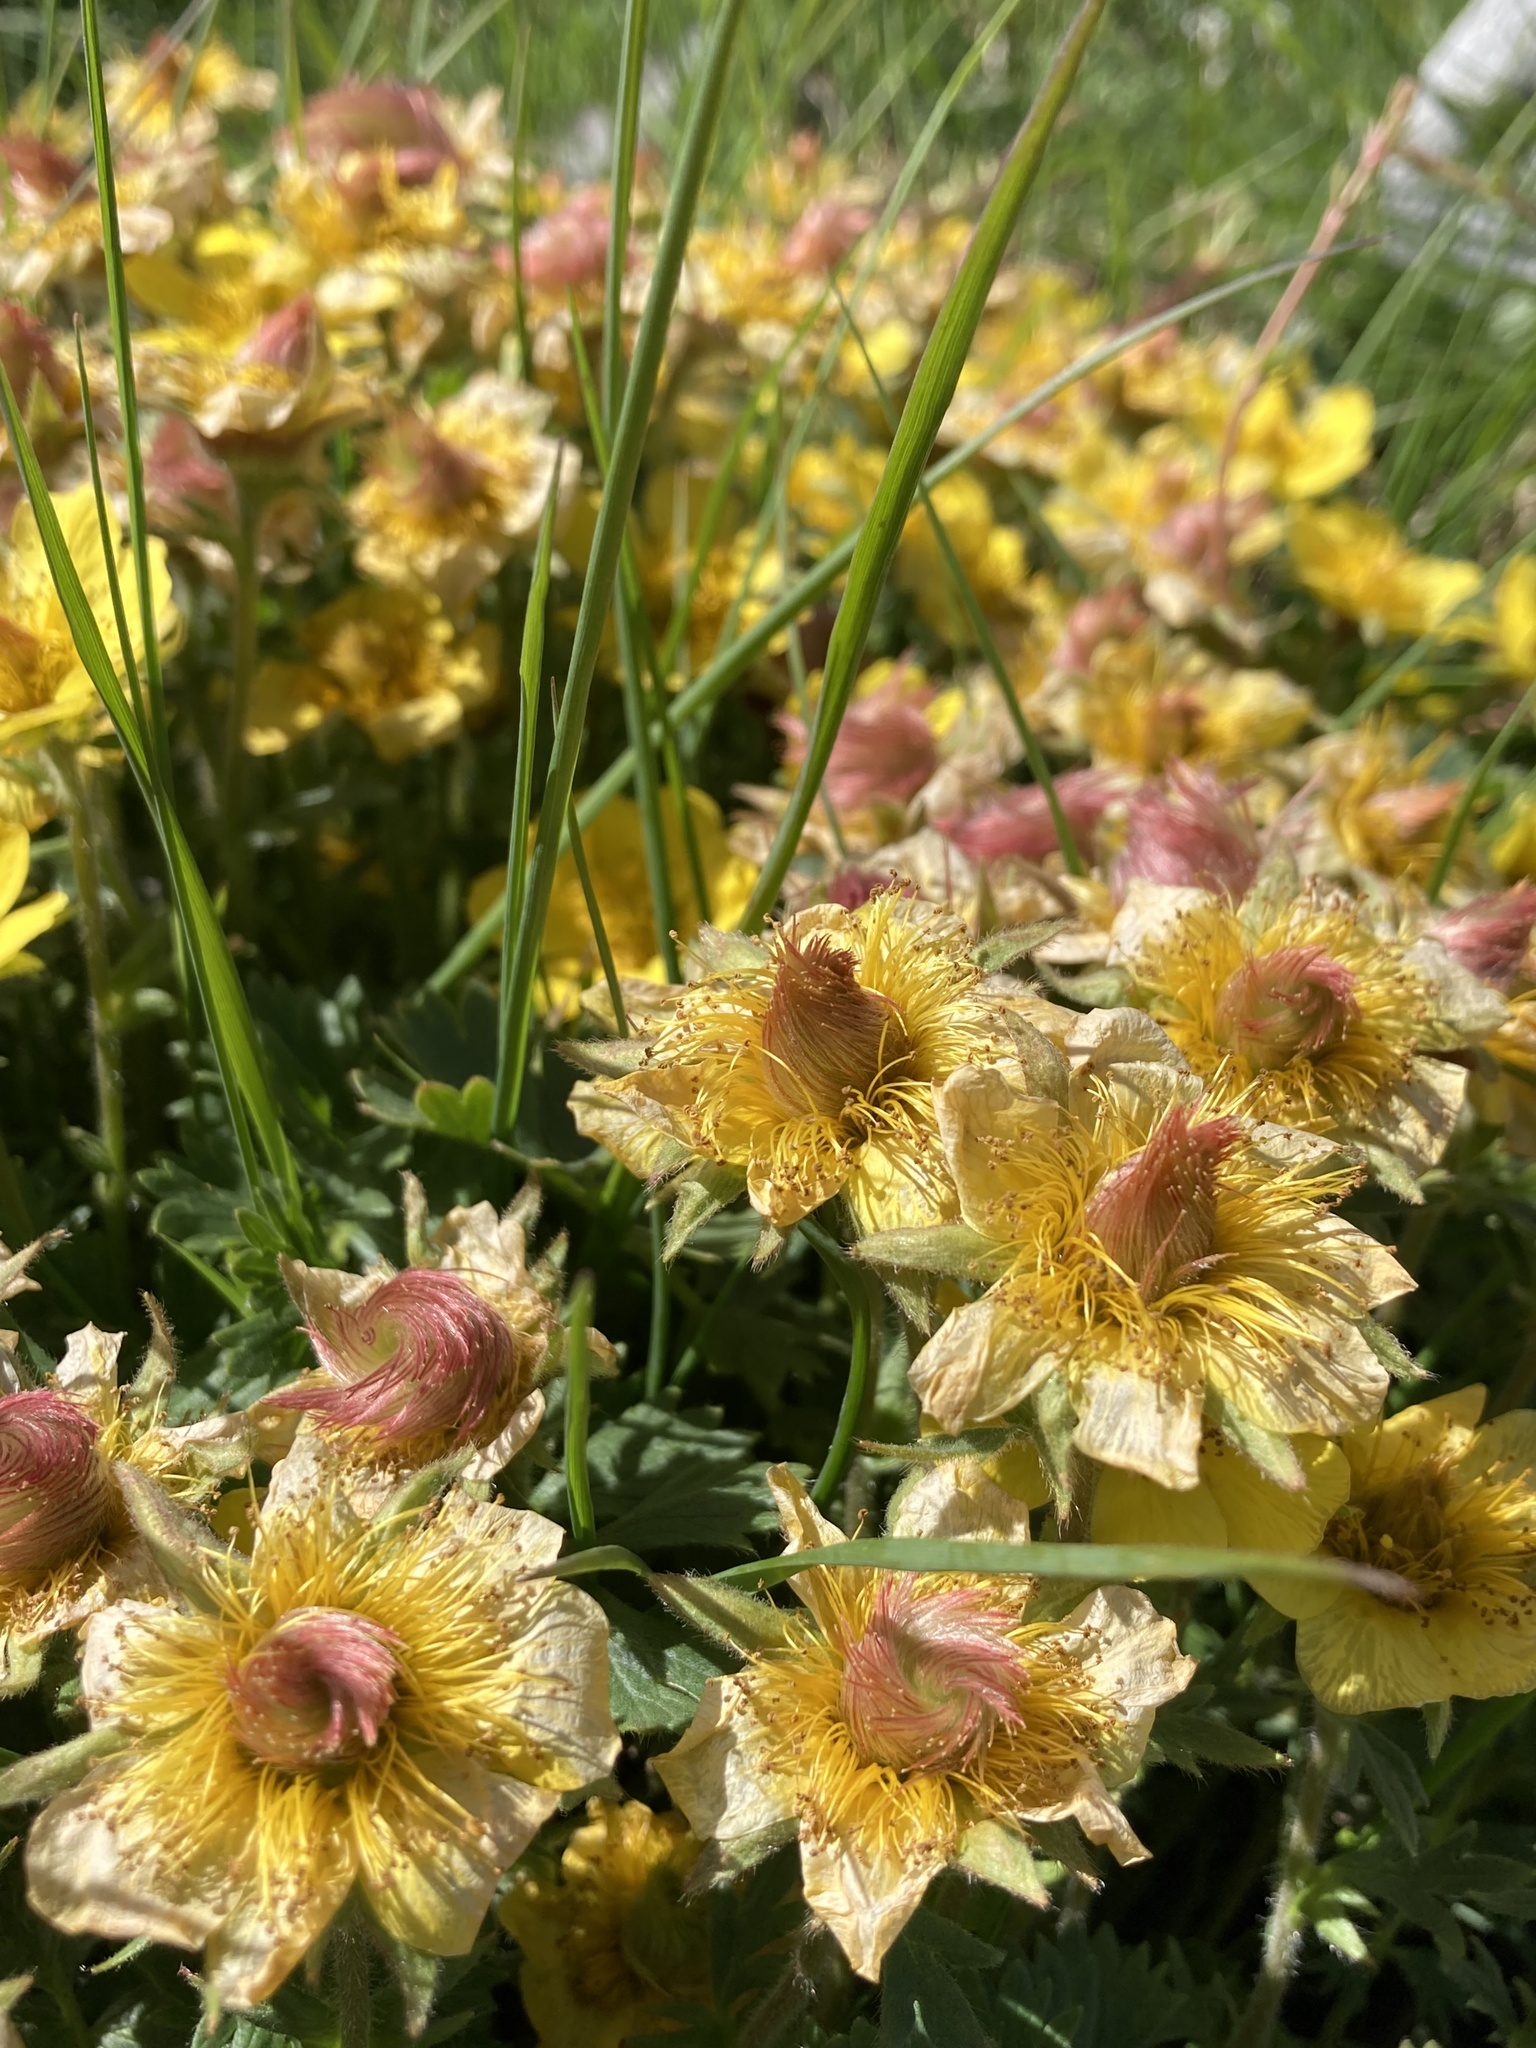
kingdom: Plantae
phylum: Tracheophyta
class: Magnoliopsida
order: Rosales
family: Rosaceae
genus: Geum
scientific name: Geum reptans
